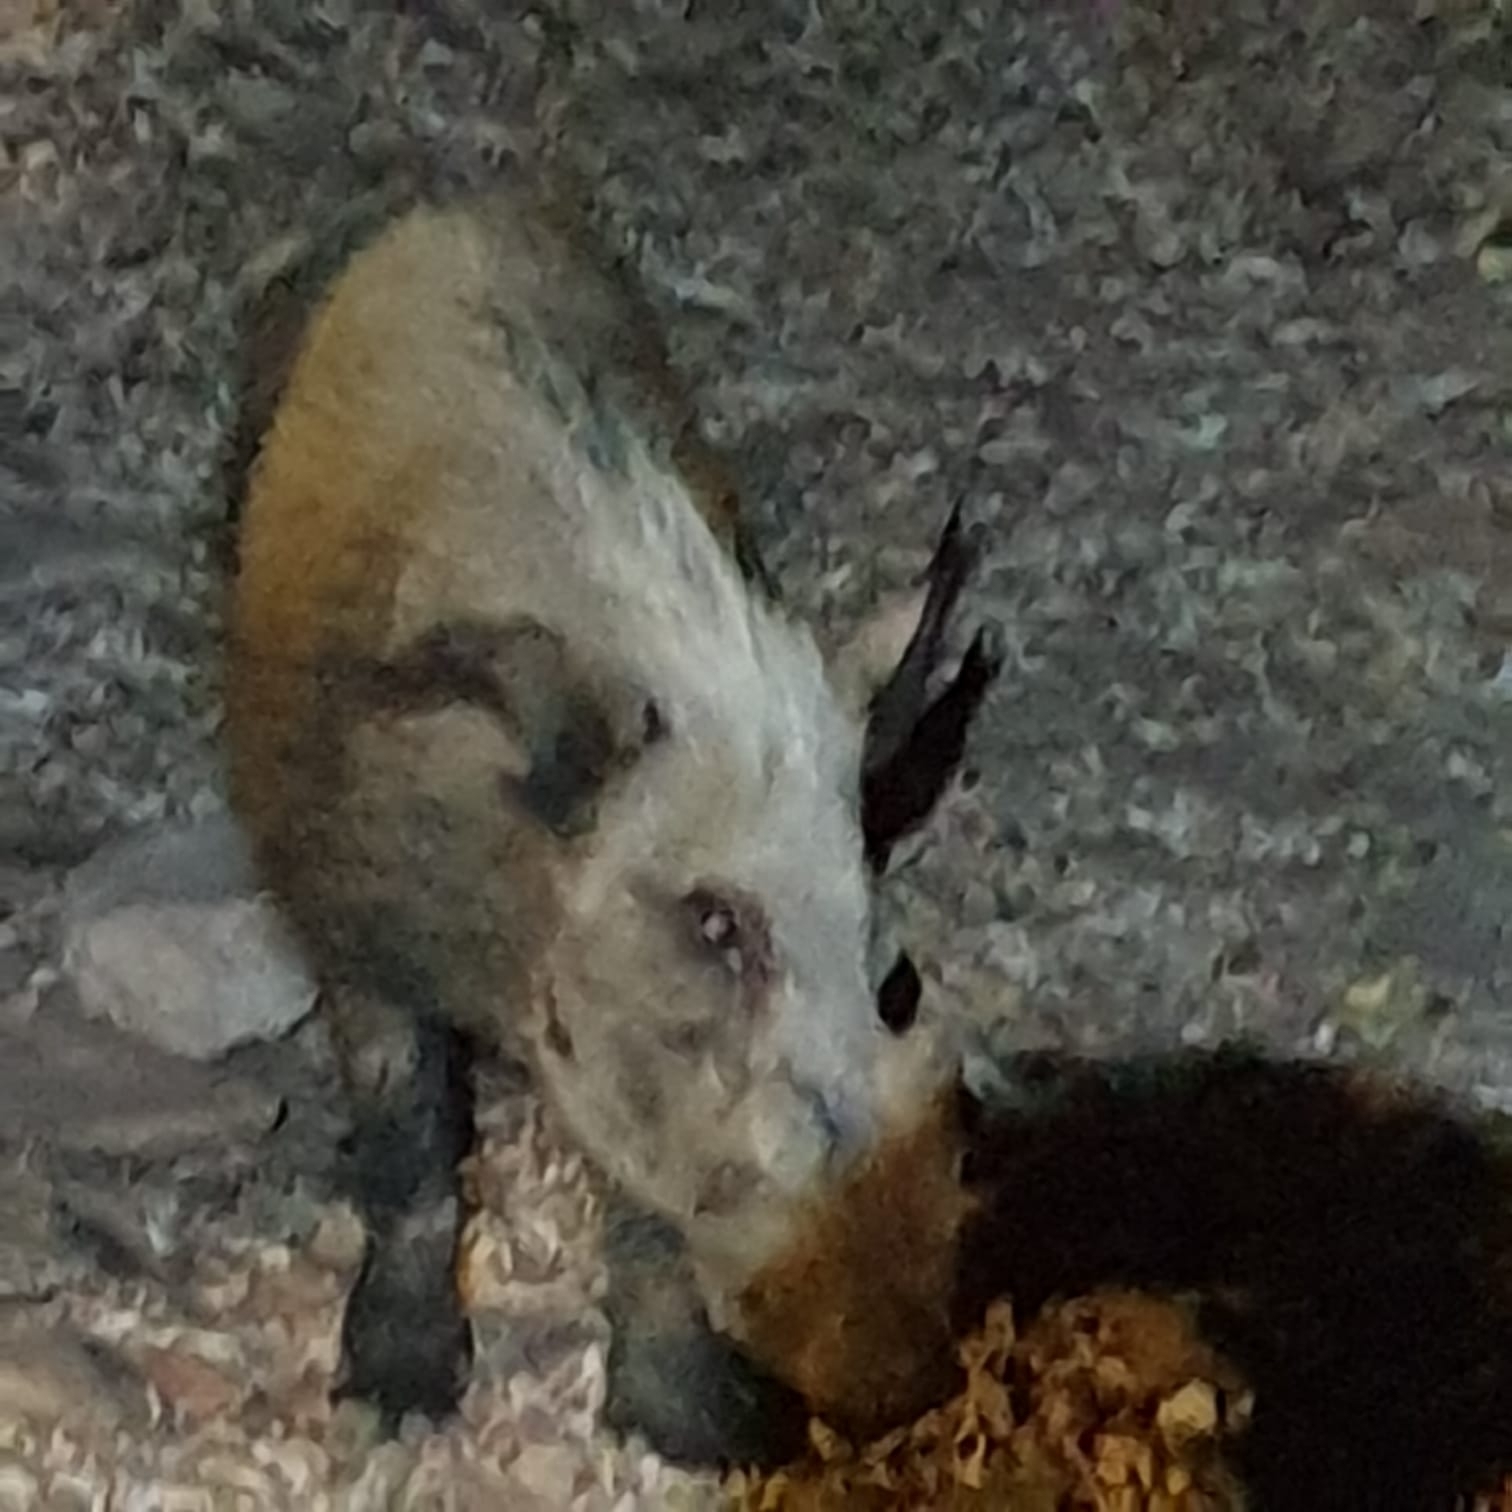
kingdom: Animalia
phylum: Chordata
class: Mammalia
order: Artiodactyla
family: Suidae
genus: Potamochoerus
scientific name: Potamochoerus larvatus
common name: Bushpig
